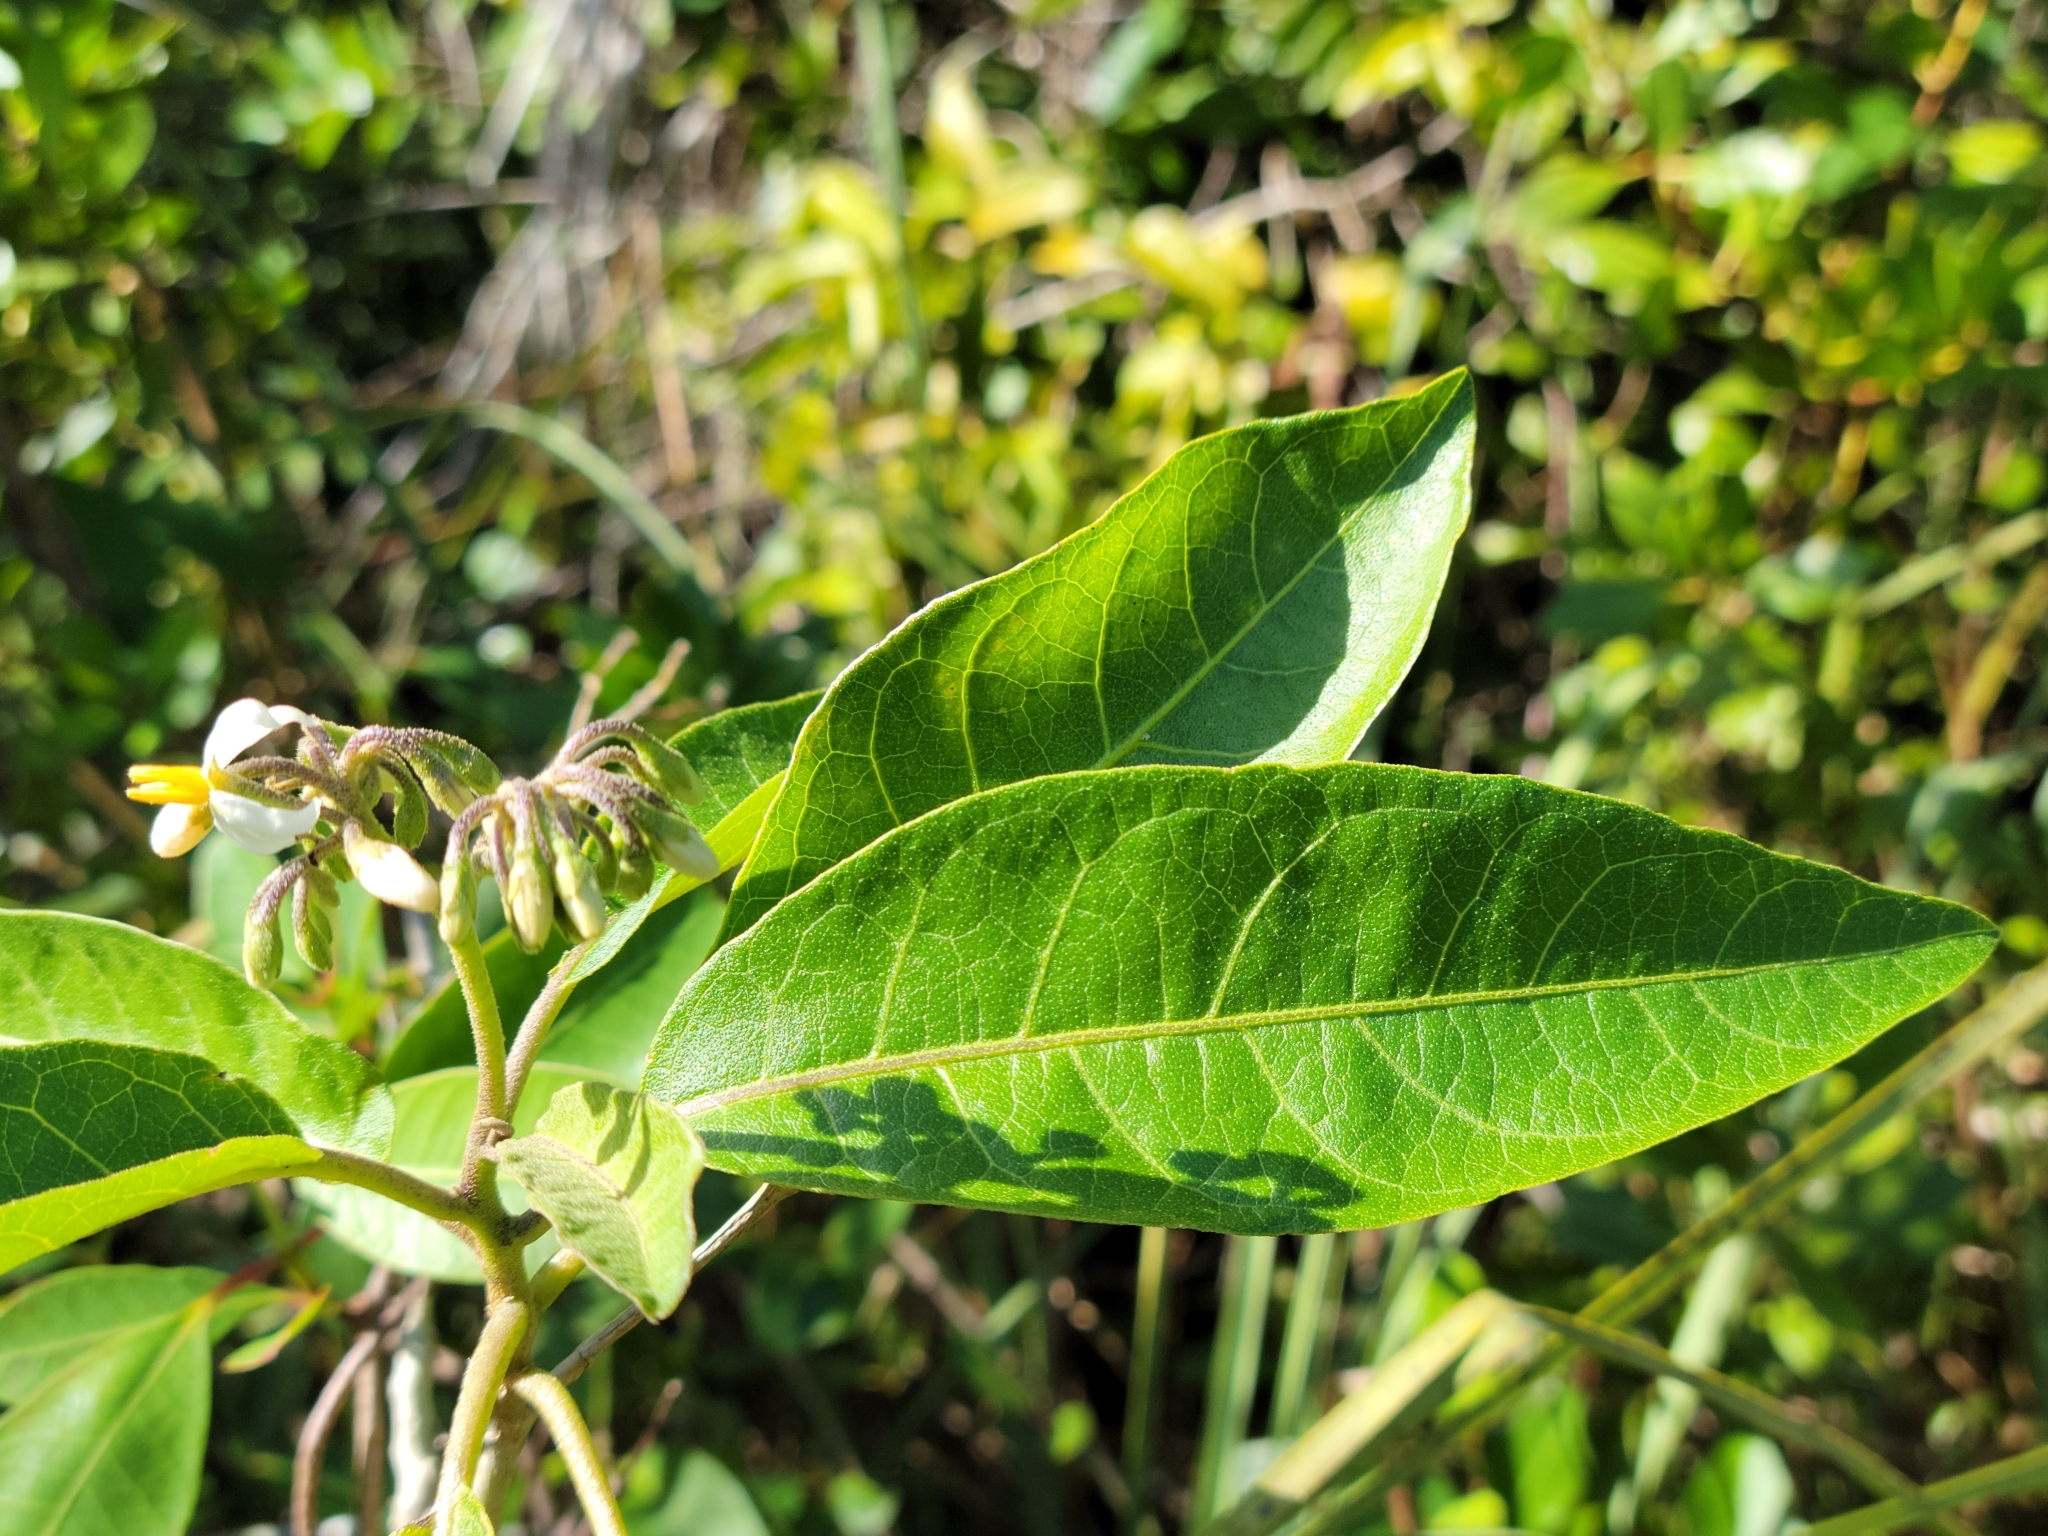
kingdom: Plantae
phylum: Tracheophyta
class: Magnoliopsida
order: Solanales
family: Solanaceae
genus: Solanum
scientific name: Solanum donianum
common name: Mullein nightshade
